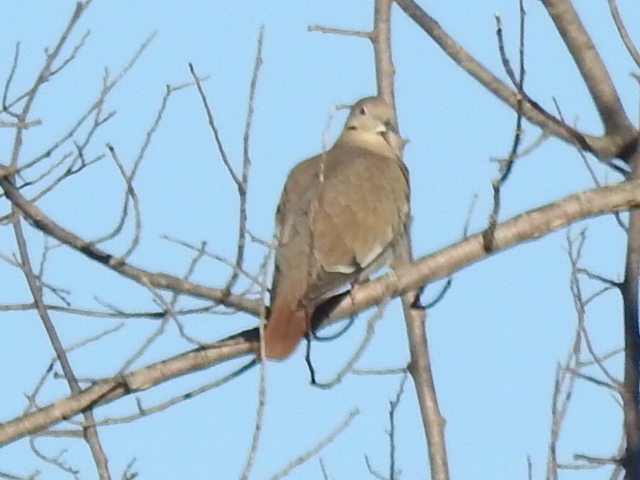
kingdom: Animalia
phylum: Chordata
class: Aves
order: Columbiformes
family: Columbidae
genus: Zenaida
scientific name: Zenaida asiatica
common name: White-winged dove
